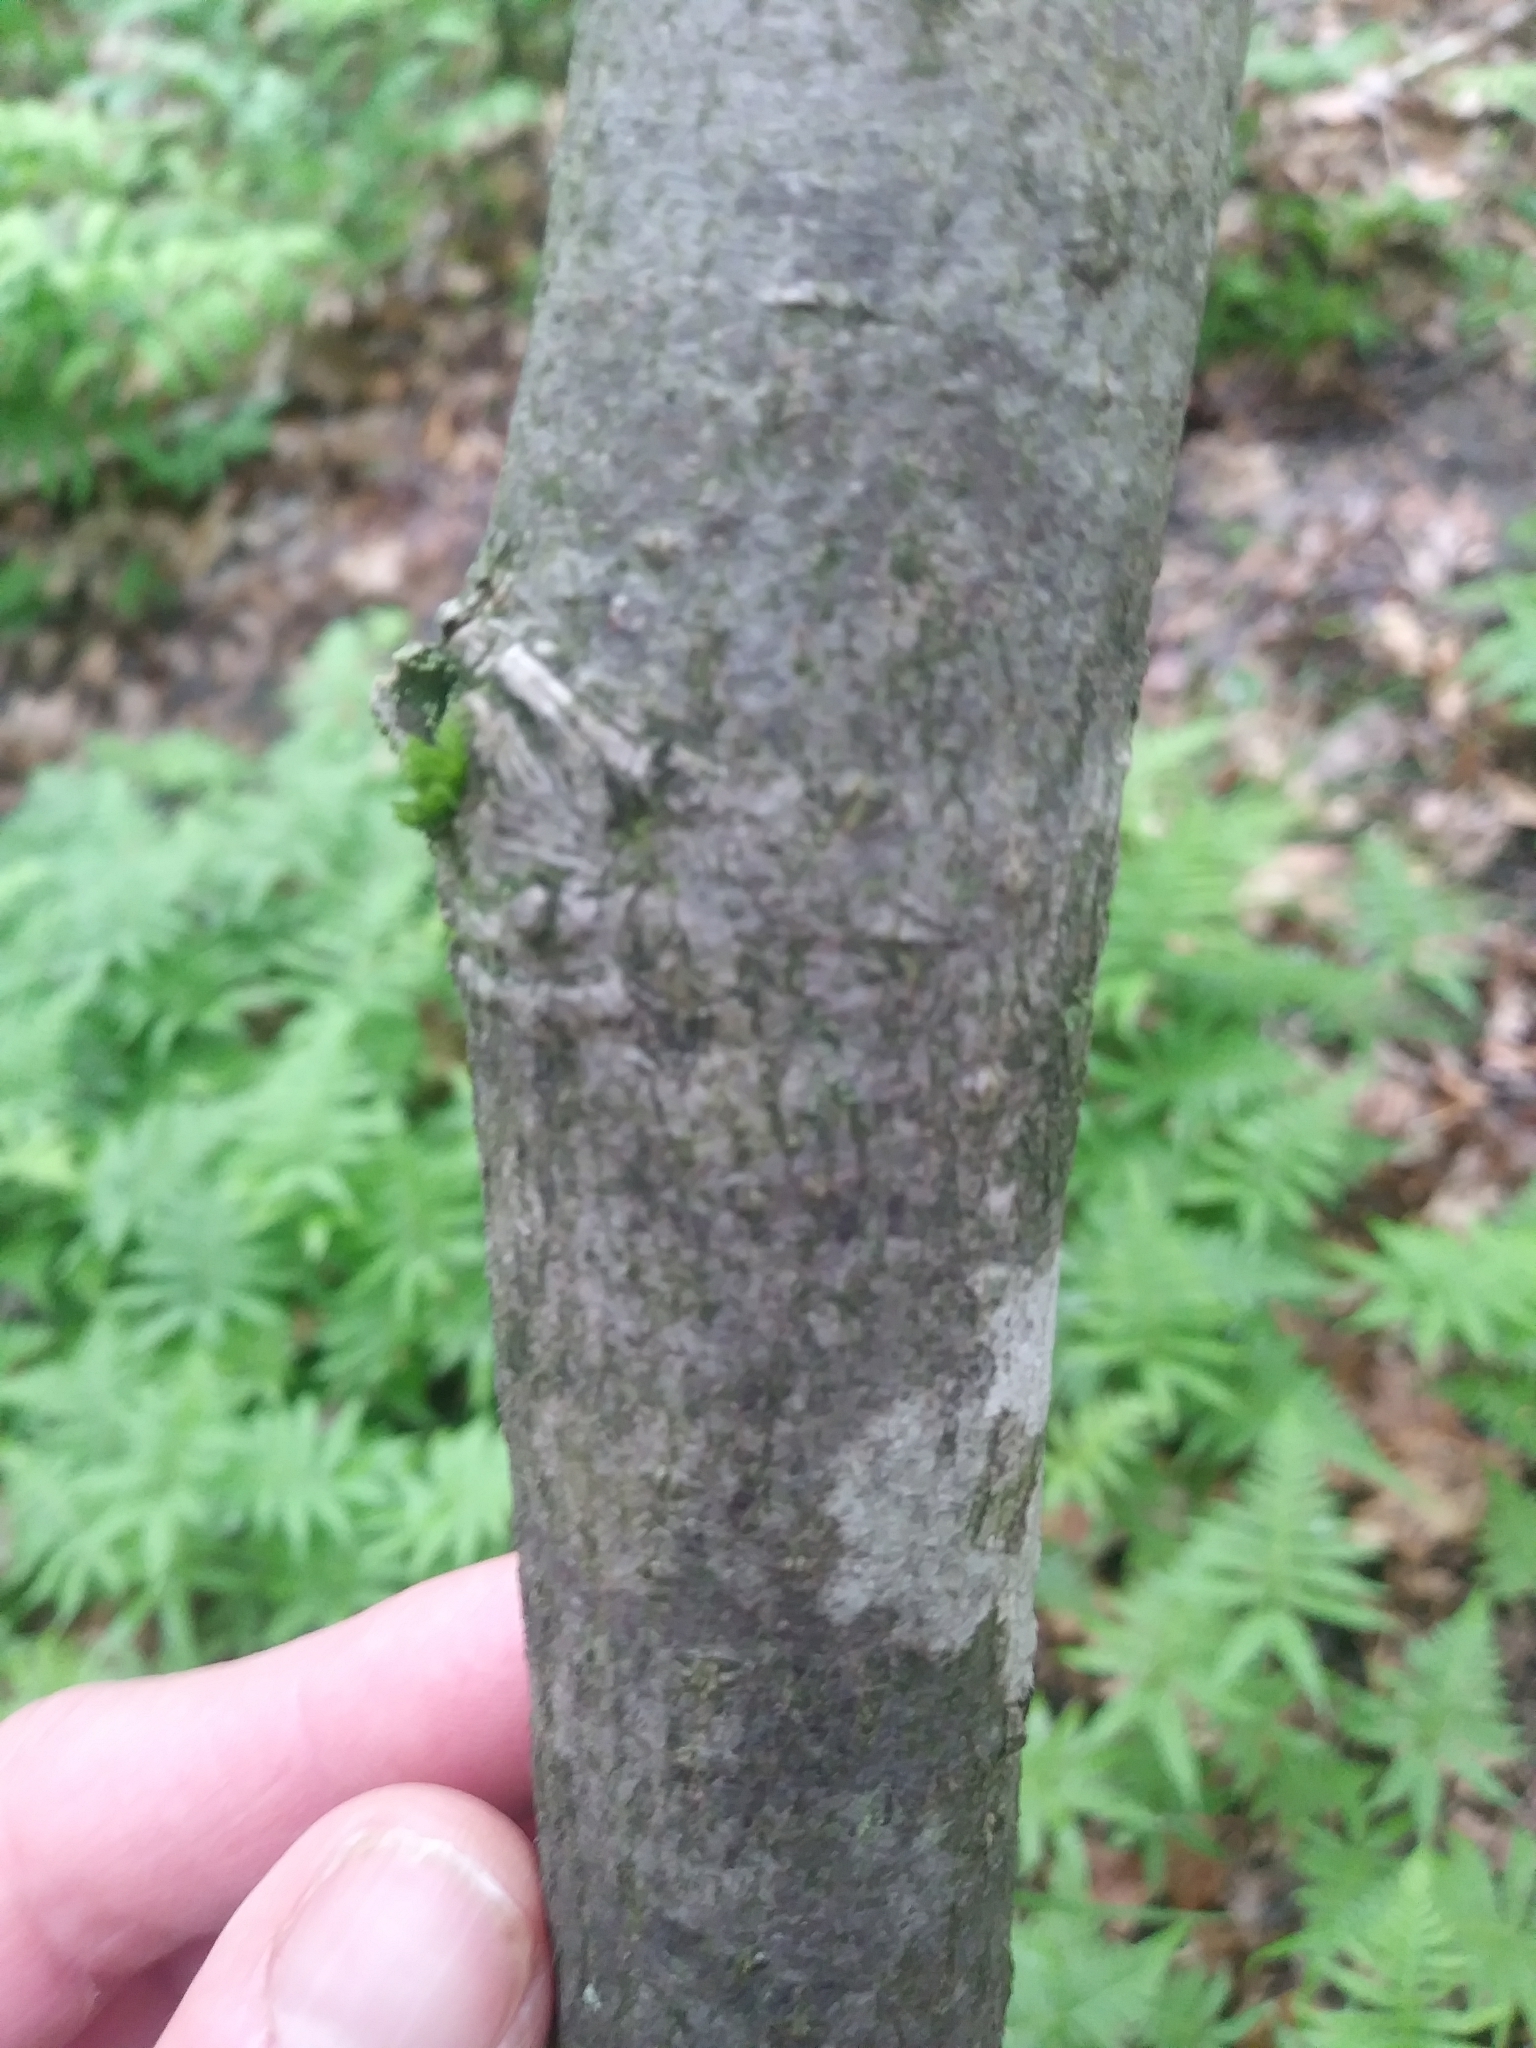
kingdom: Plantae
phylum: Tracheophyta
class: Magnoliopsida
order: Malvales
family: Malvaceae
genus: Tilia
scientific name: Tilia americana
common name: Basswood
